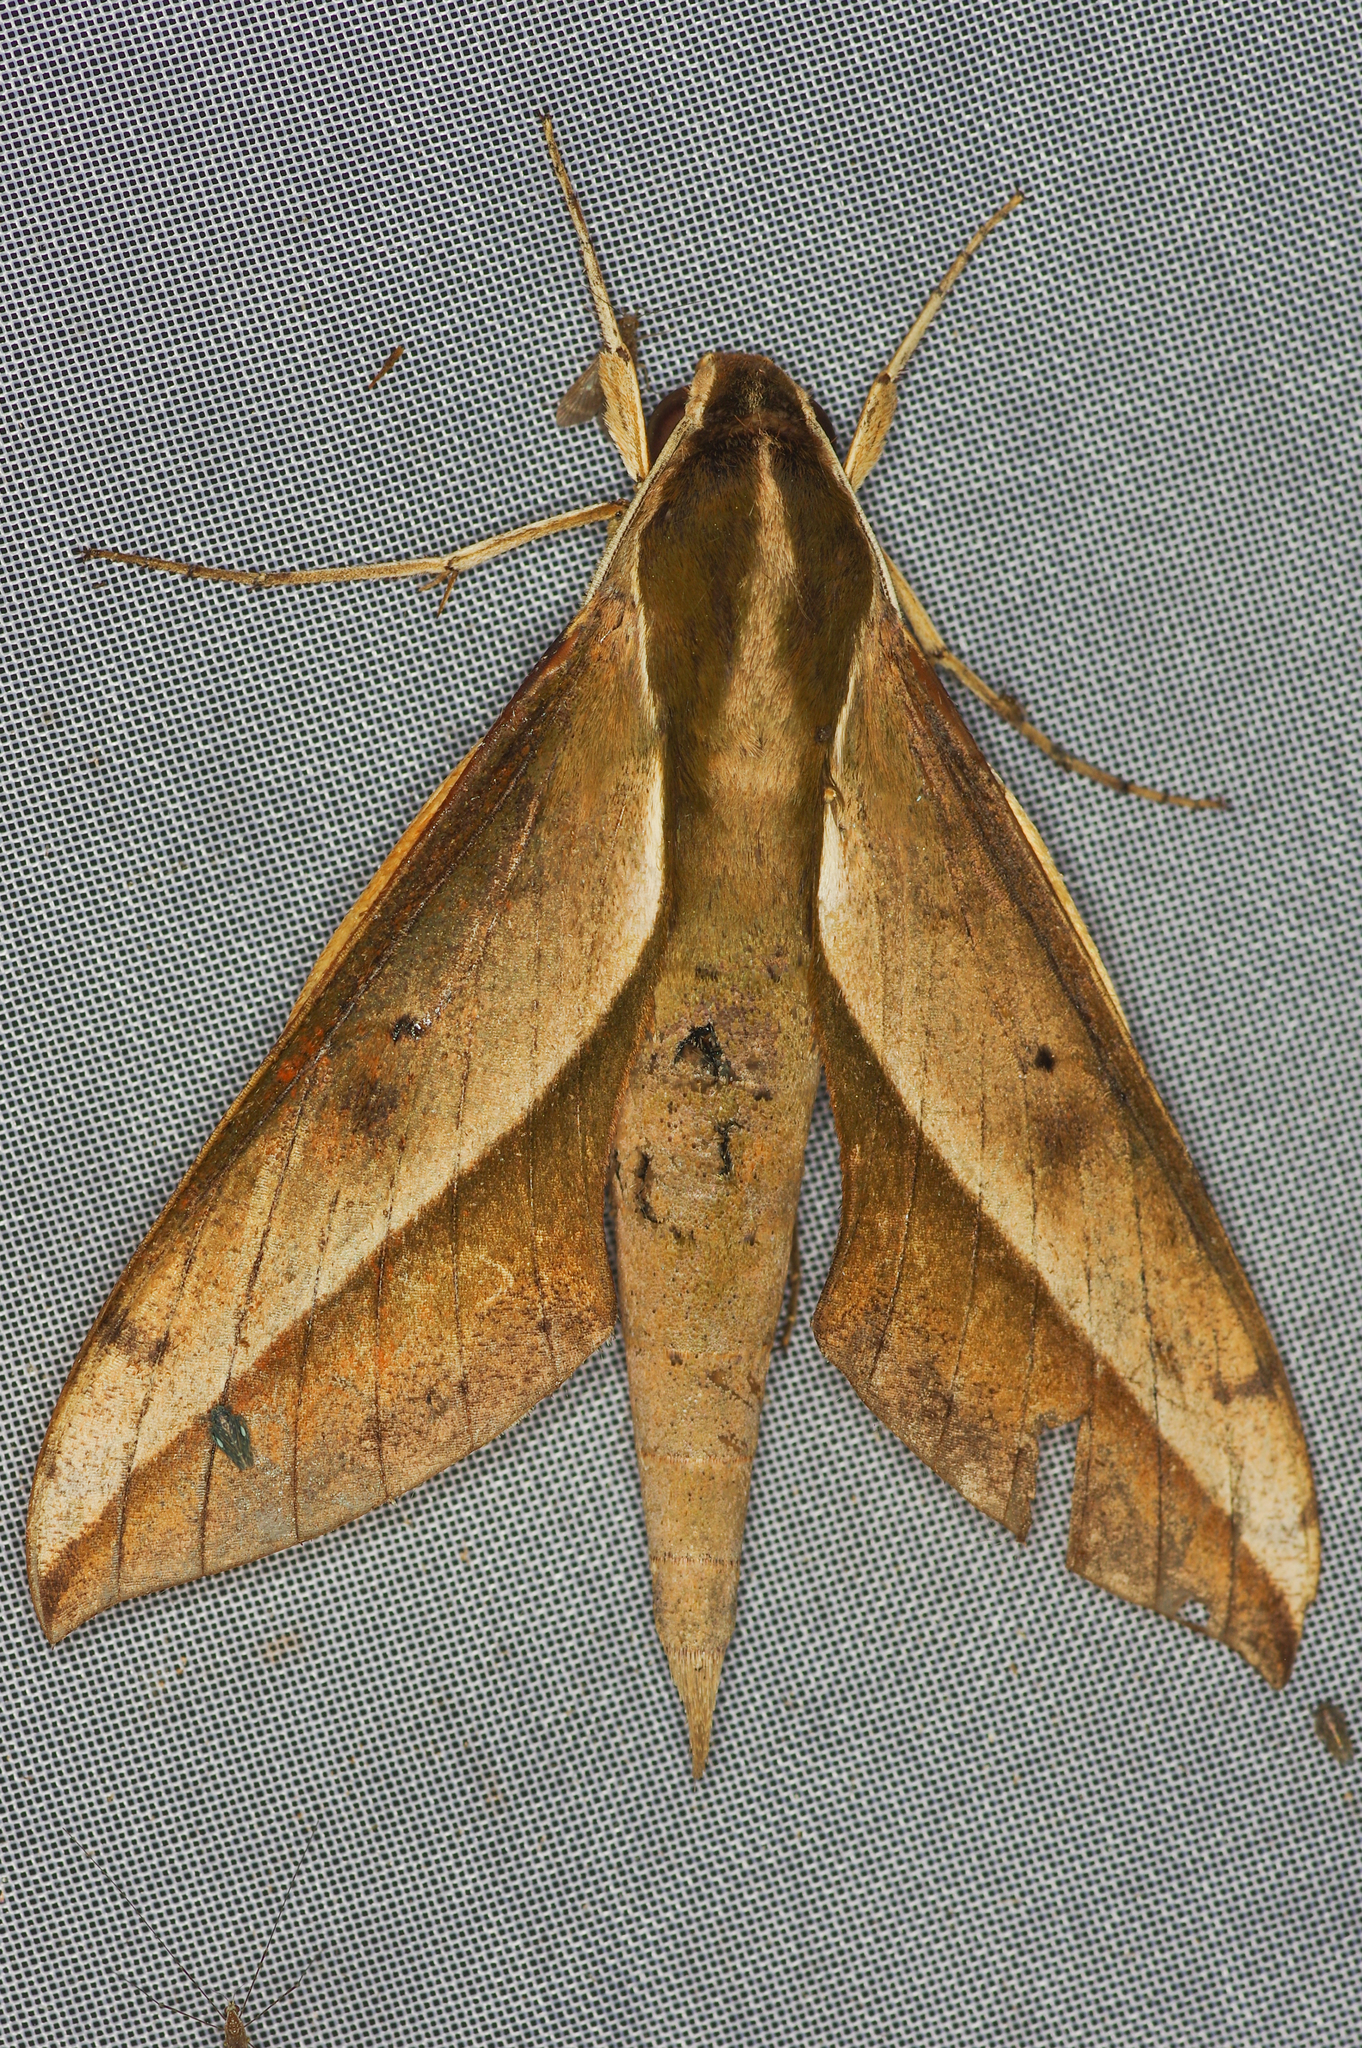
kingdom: Animalia
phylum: Arthropoda
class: Insecta
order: Lepidoptera
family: Sphingidae
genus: Xylophanes
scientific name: Xylophanes amadis
